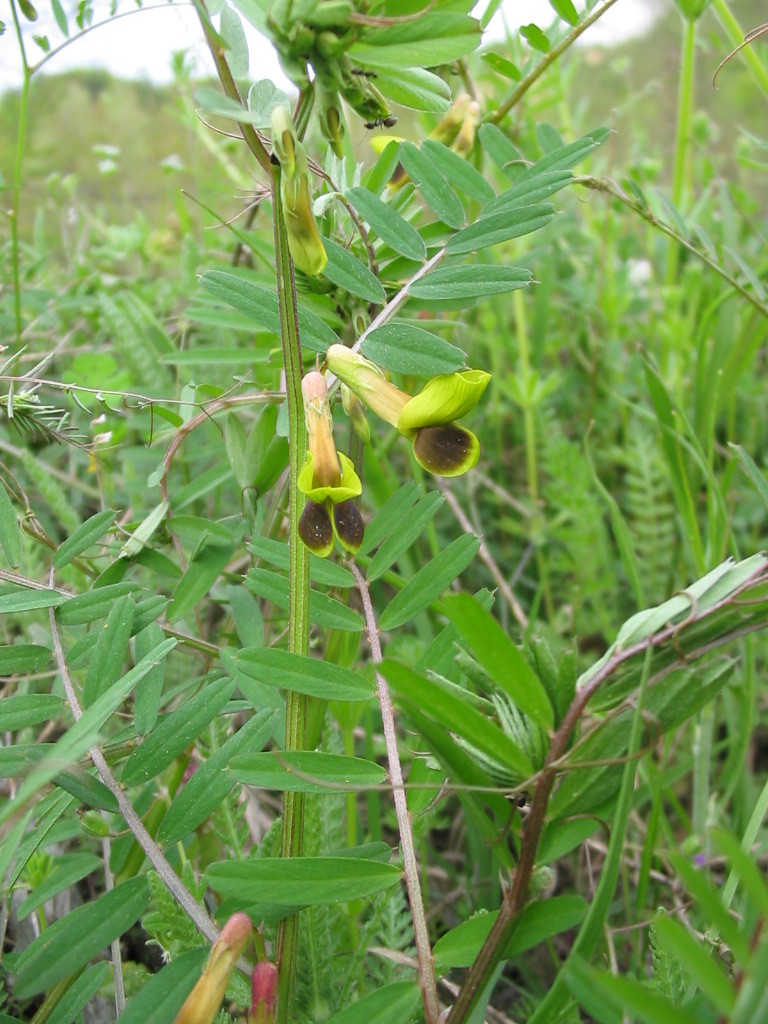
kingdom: Plantae
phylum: Tracheophyta
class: Magnoliopsida
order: Fabales
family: Fabaceae
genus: Vicia
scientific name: Vicia melanops
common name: Black-eyed vetch
